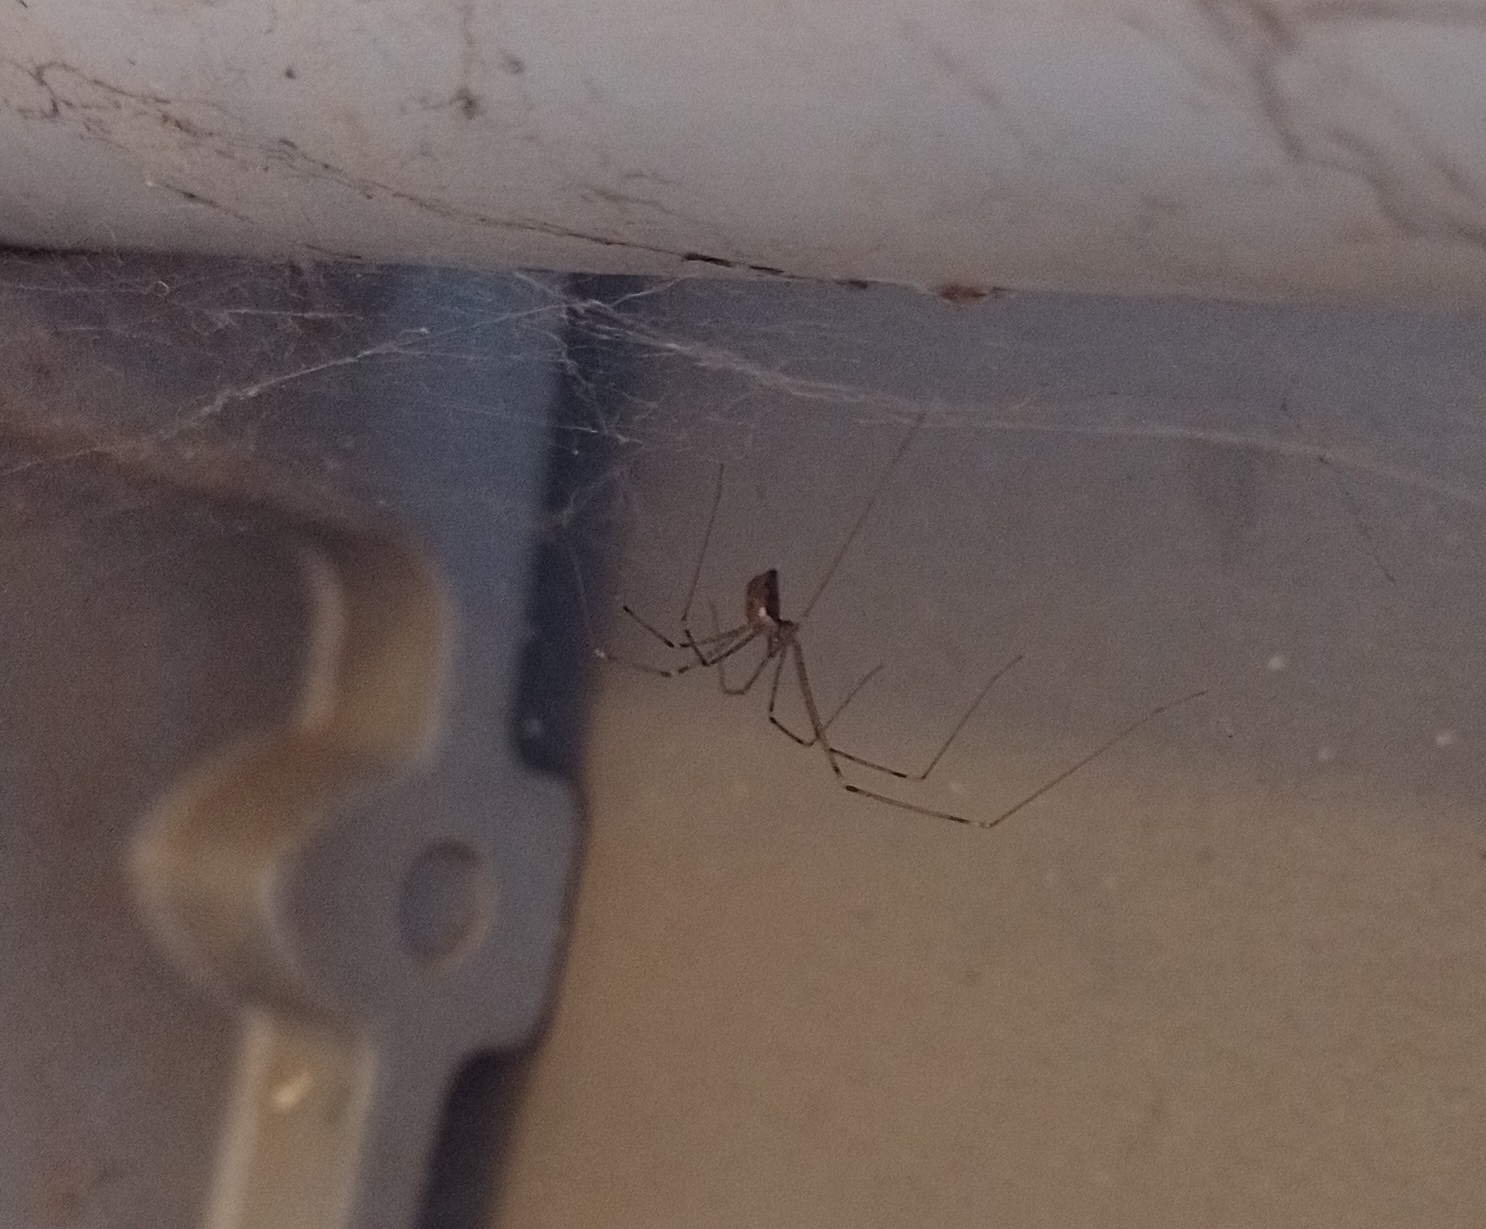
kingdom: Animalia
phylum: Arthropoda
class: Arachnida
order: Araneae
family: Pholcidae
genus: Holocnemus
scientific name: Holocnemus pluchei
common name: Marbled cellar spider
